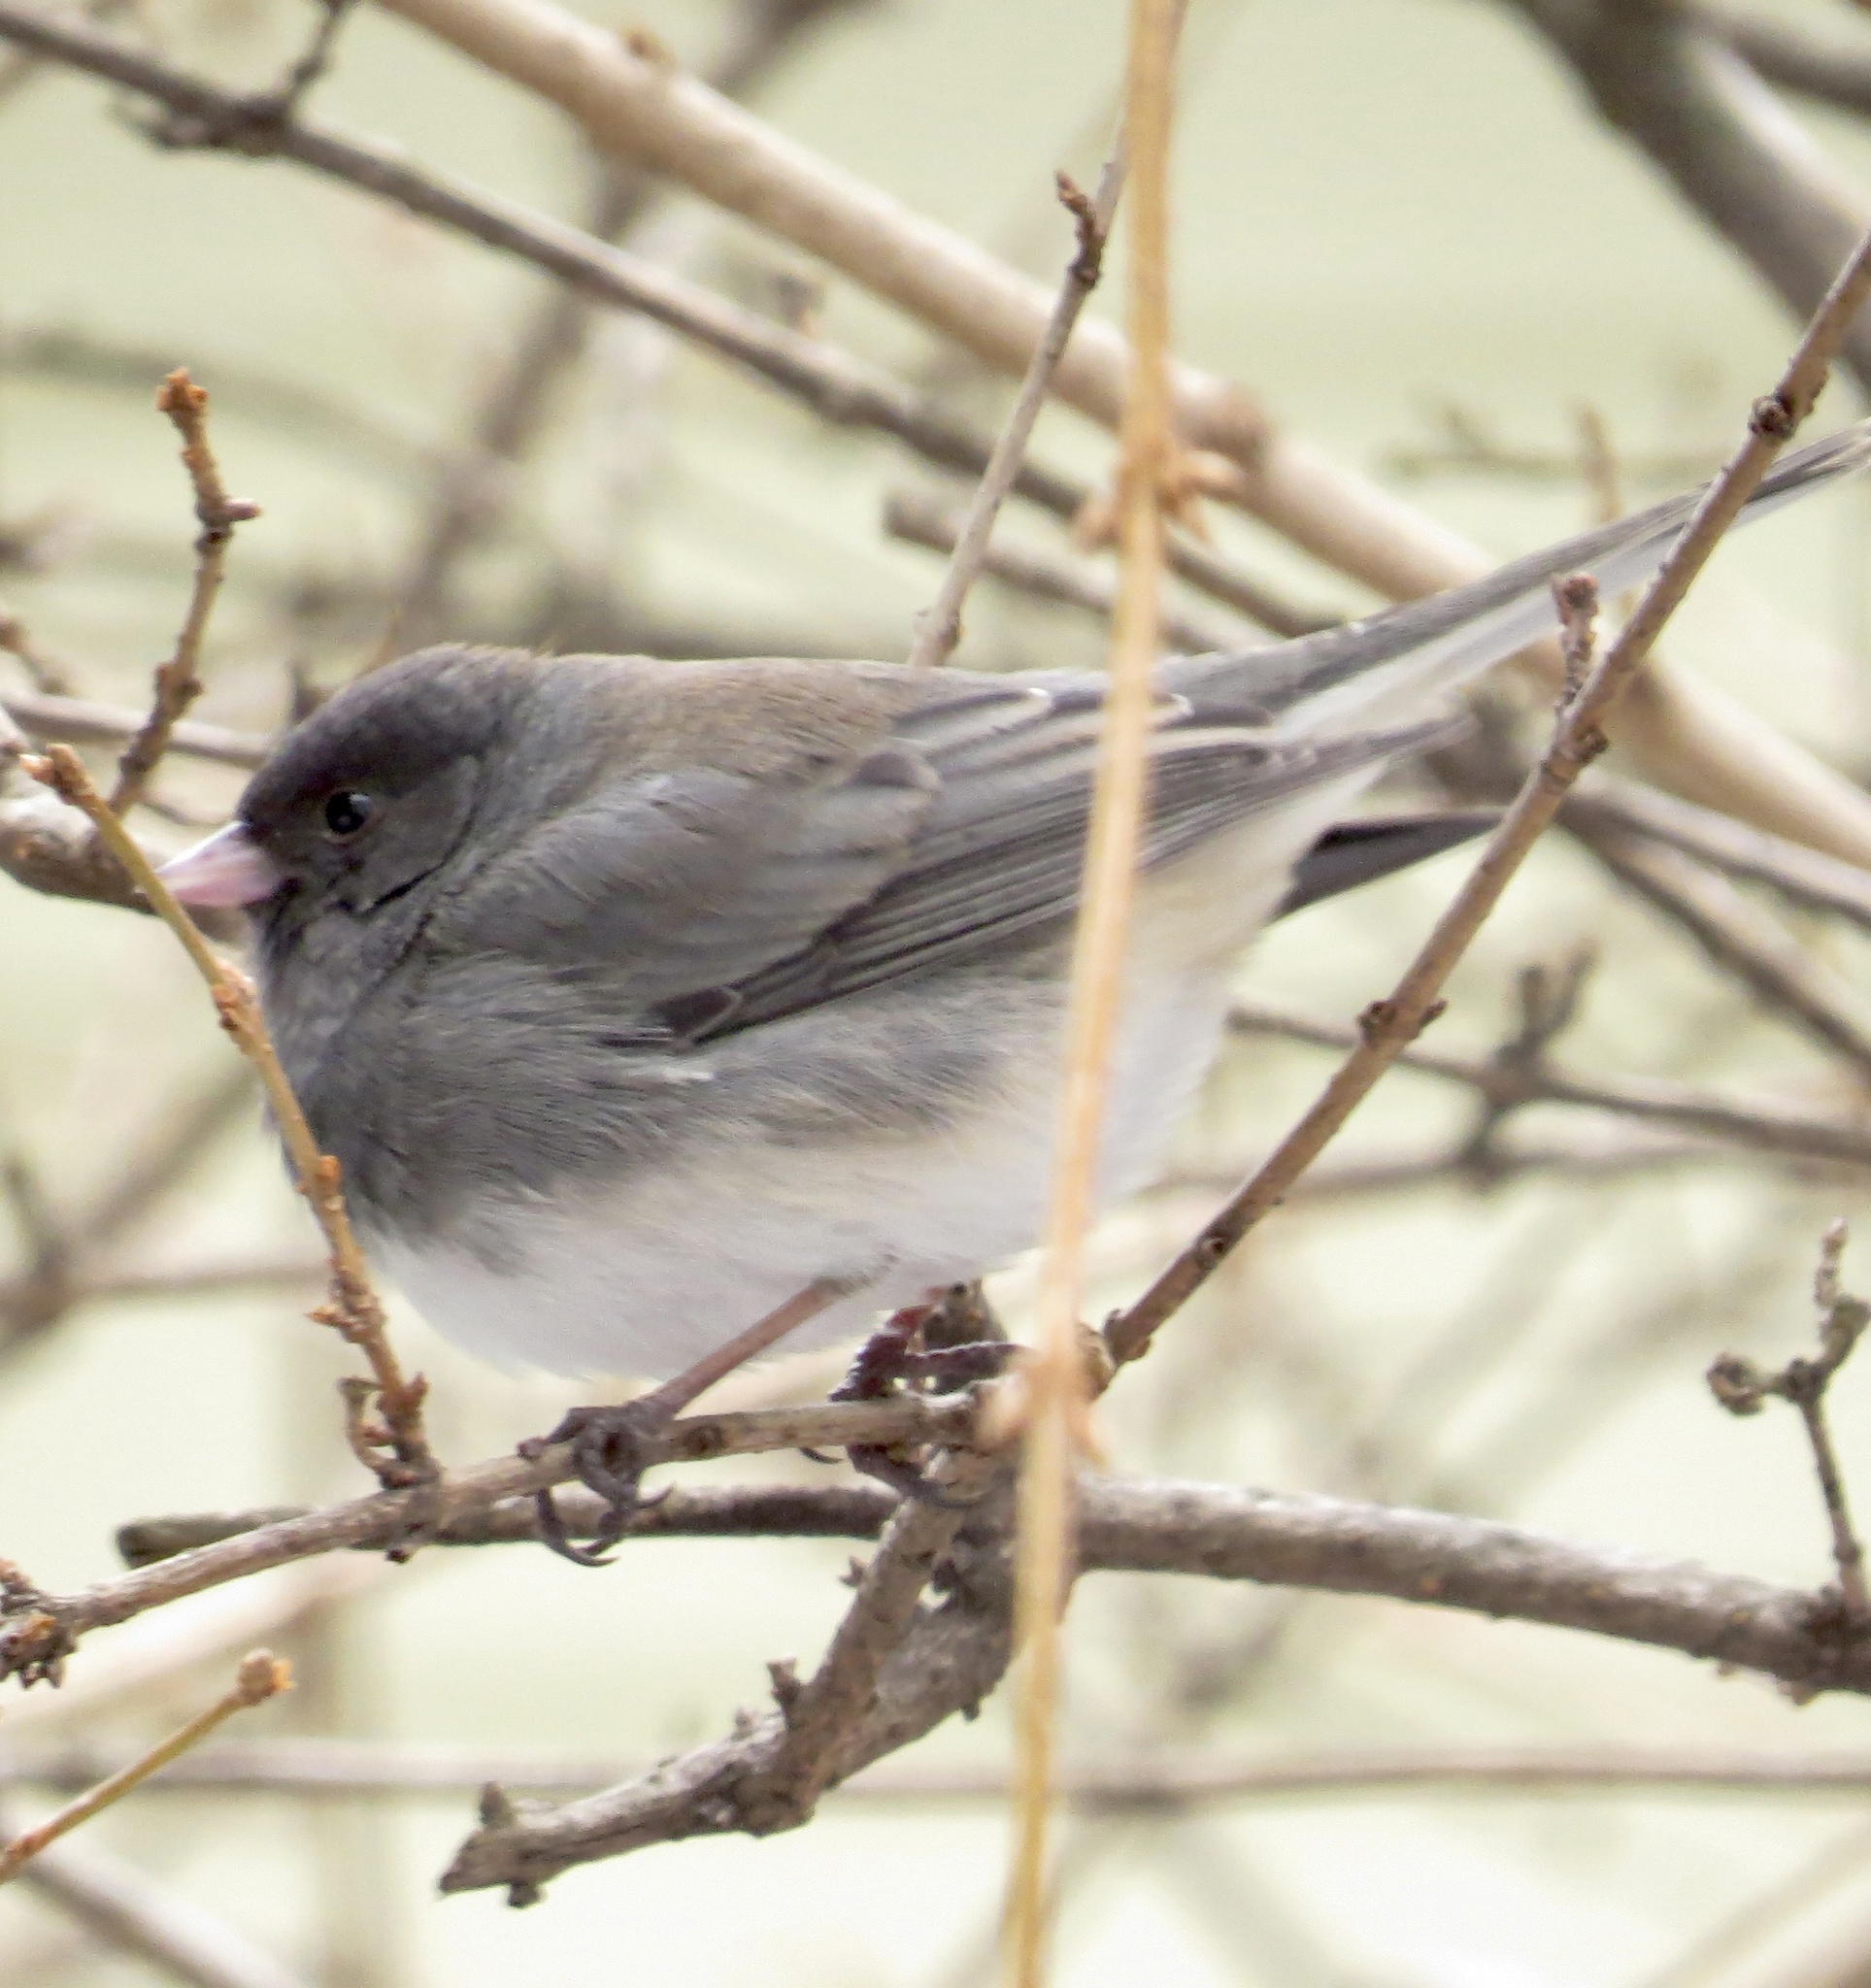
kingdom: Animalia
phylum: Chordata
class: Aves
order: Passeriformes
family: Passerellidae
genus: Junco
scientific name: Junco hyemalis
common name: Dark-eyed junco
